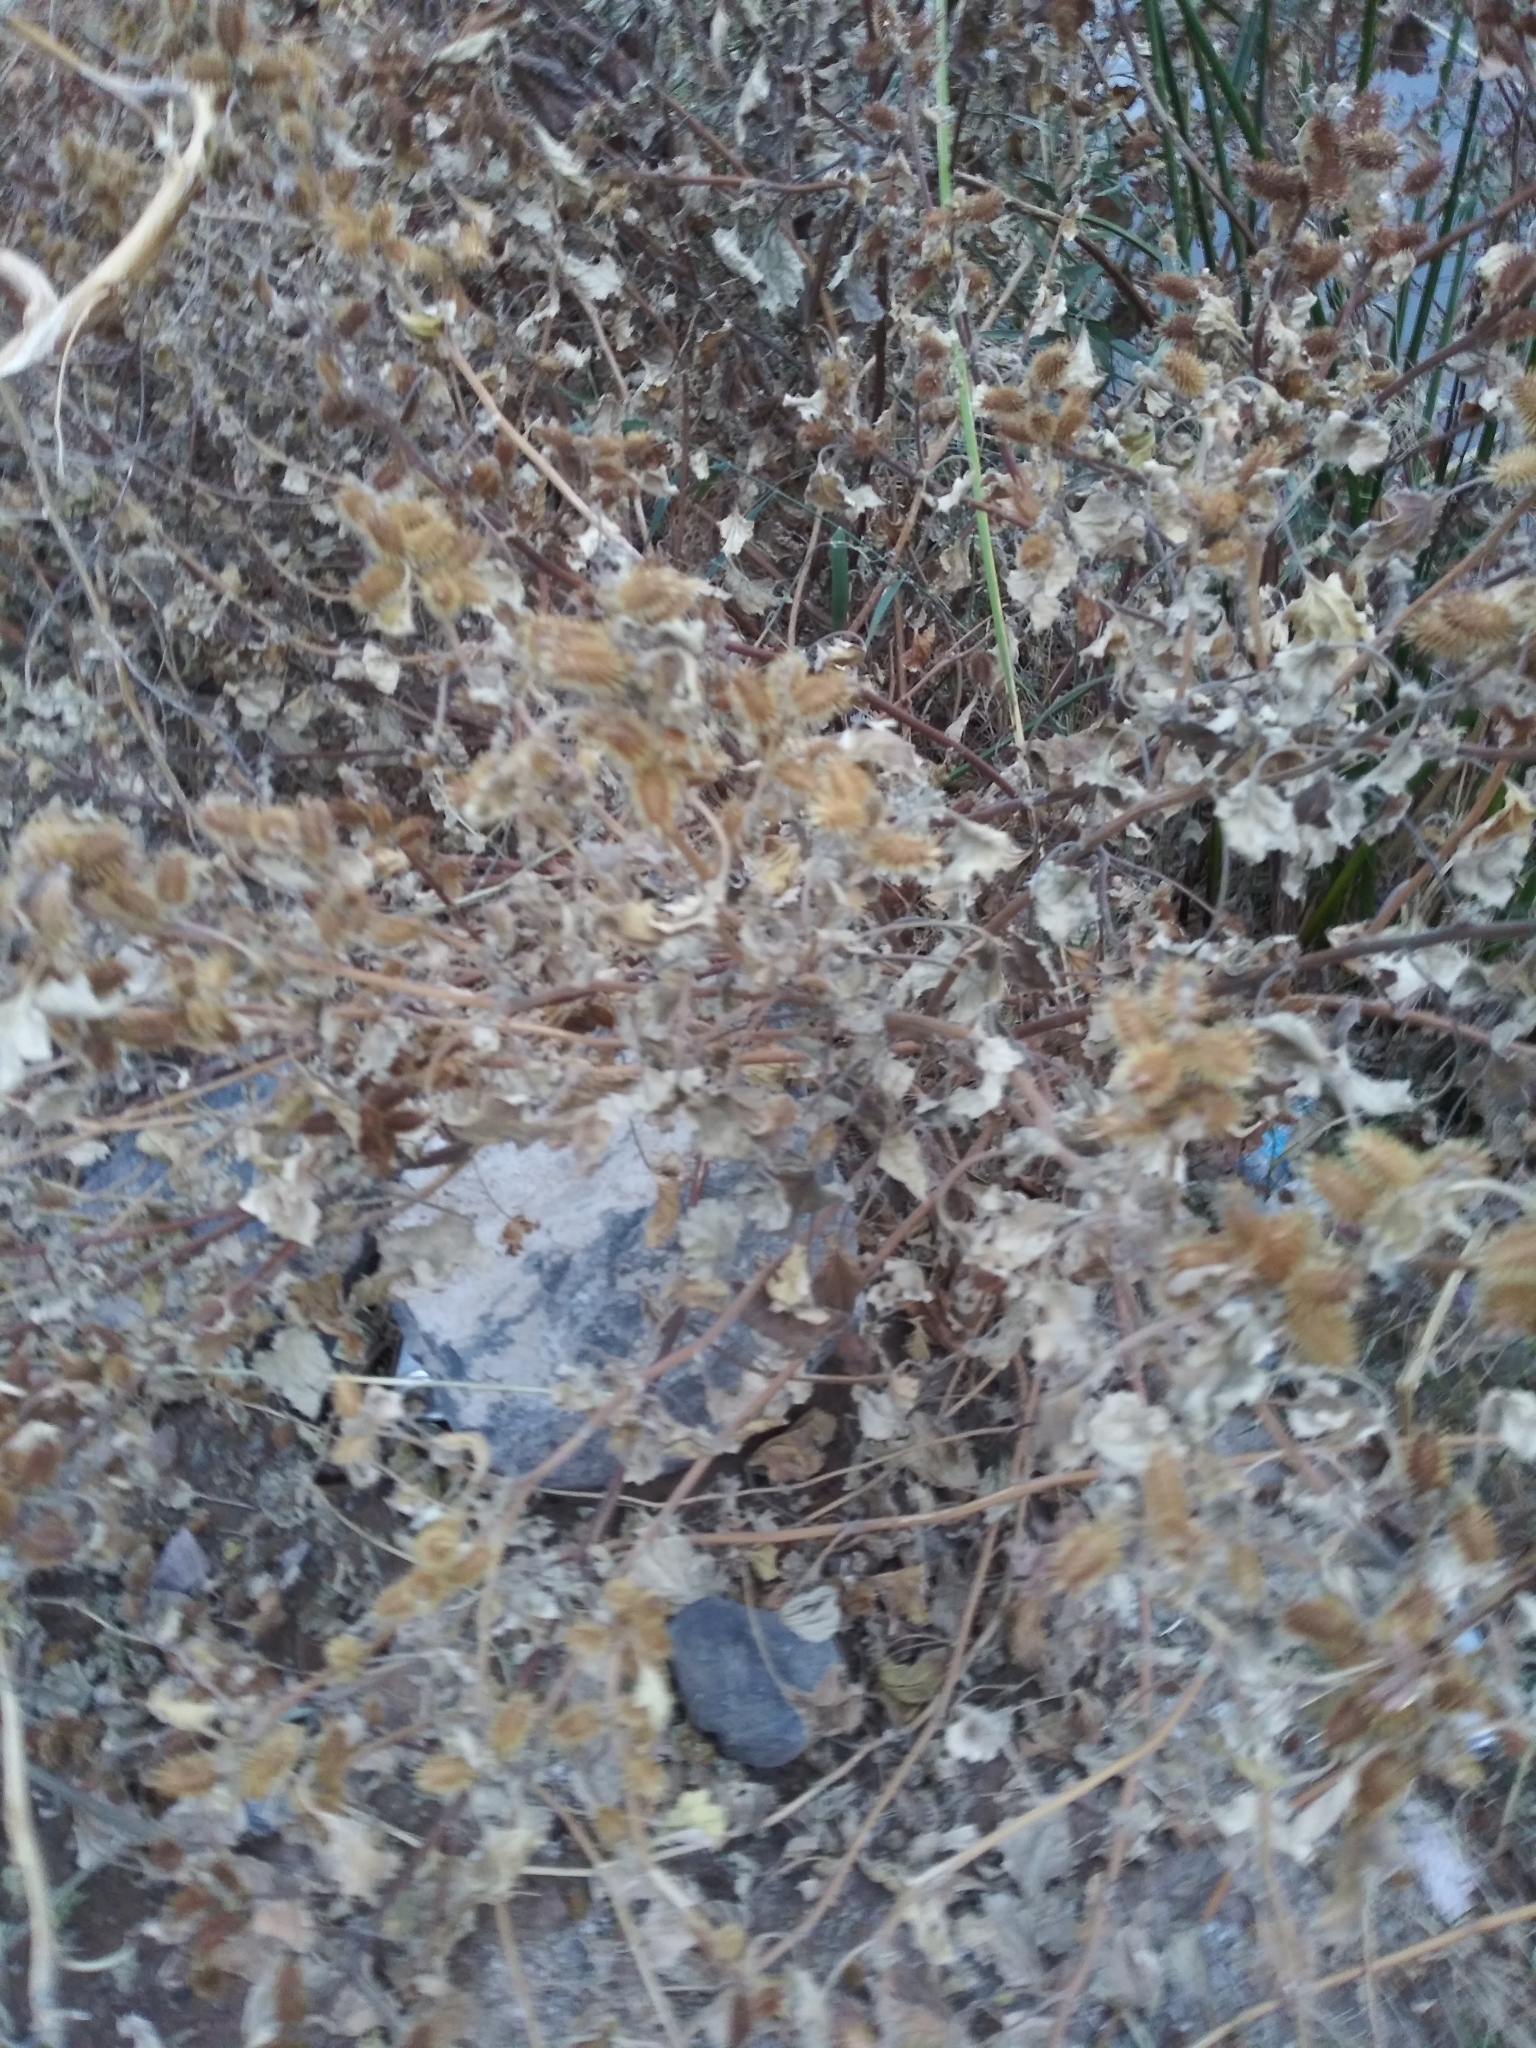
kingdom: Plantae
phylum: Tracheophyta
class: Magnoliopsida
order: Asterales
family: Asteraceae
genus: Xanthium
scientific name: Xanthium strumarium
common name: Rough cocklebur
